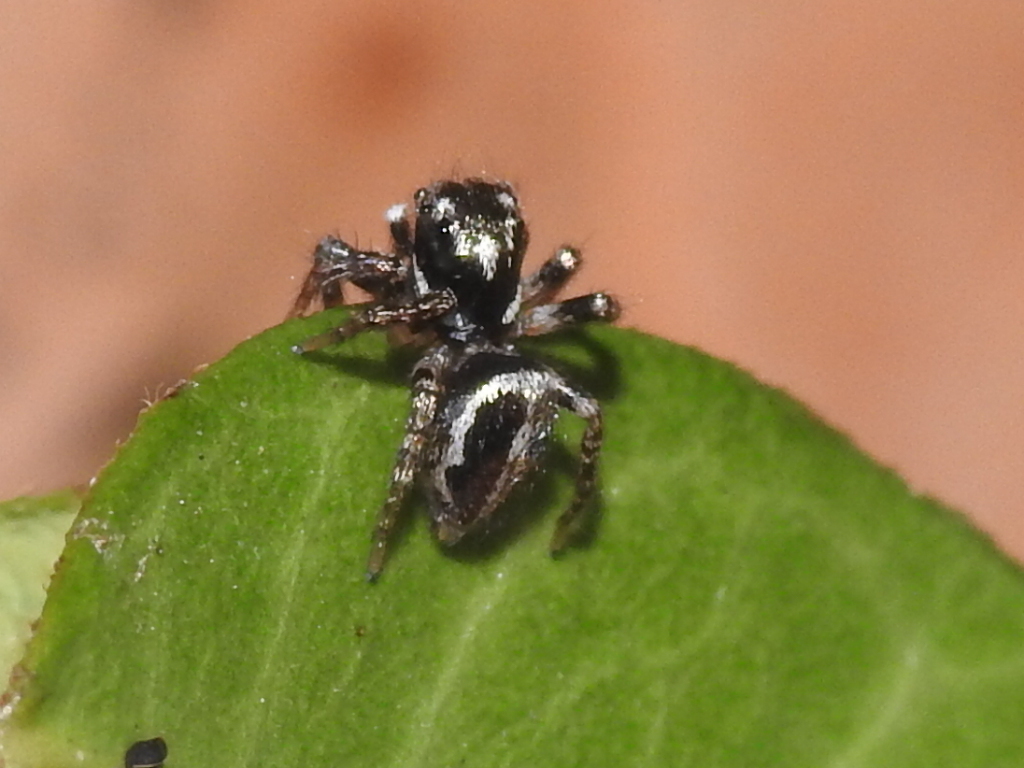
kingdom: Animalia
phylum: Arthropoda
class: Arachnida
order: Araneae
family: Salticidae
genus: Anasaitis
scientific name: Anasaitis canosa
